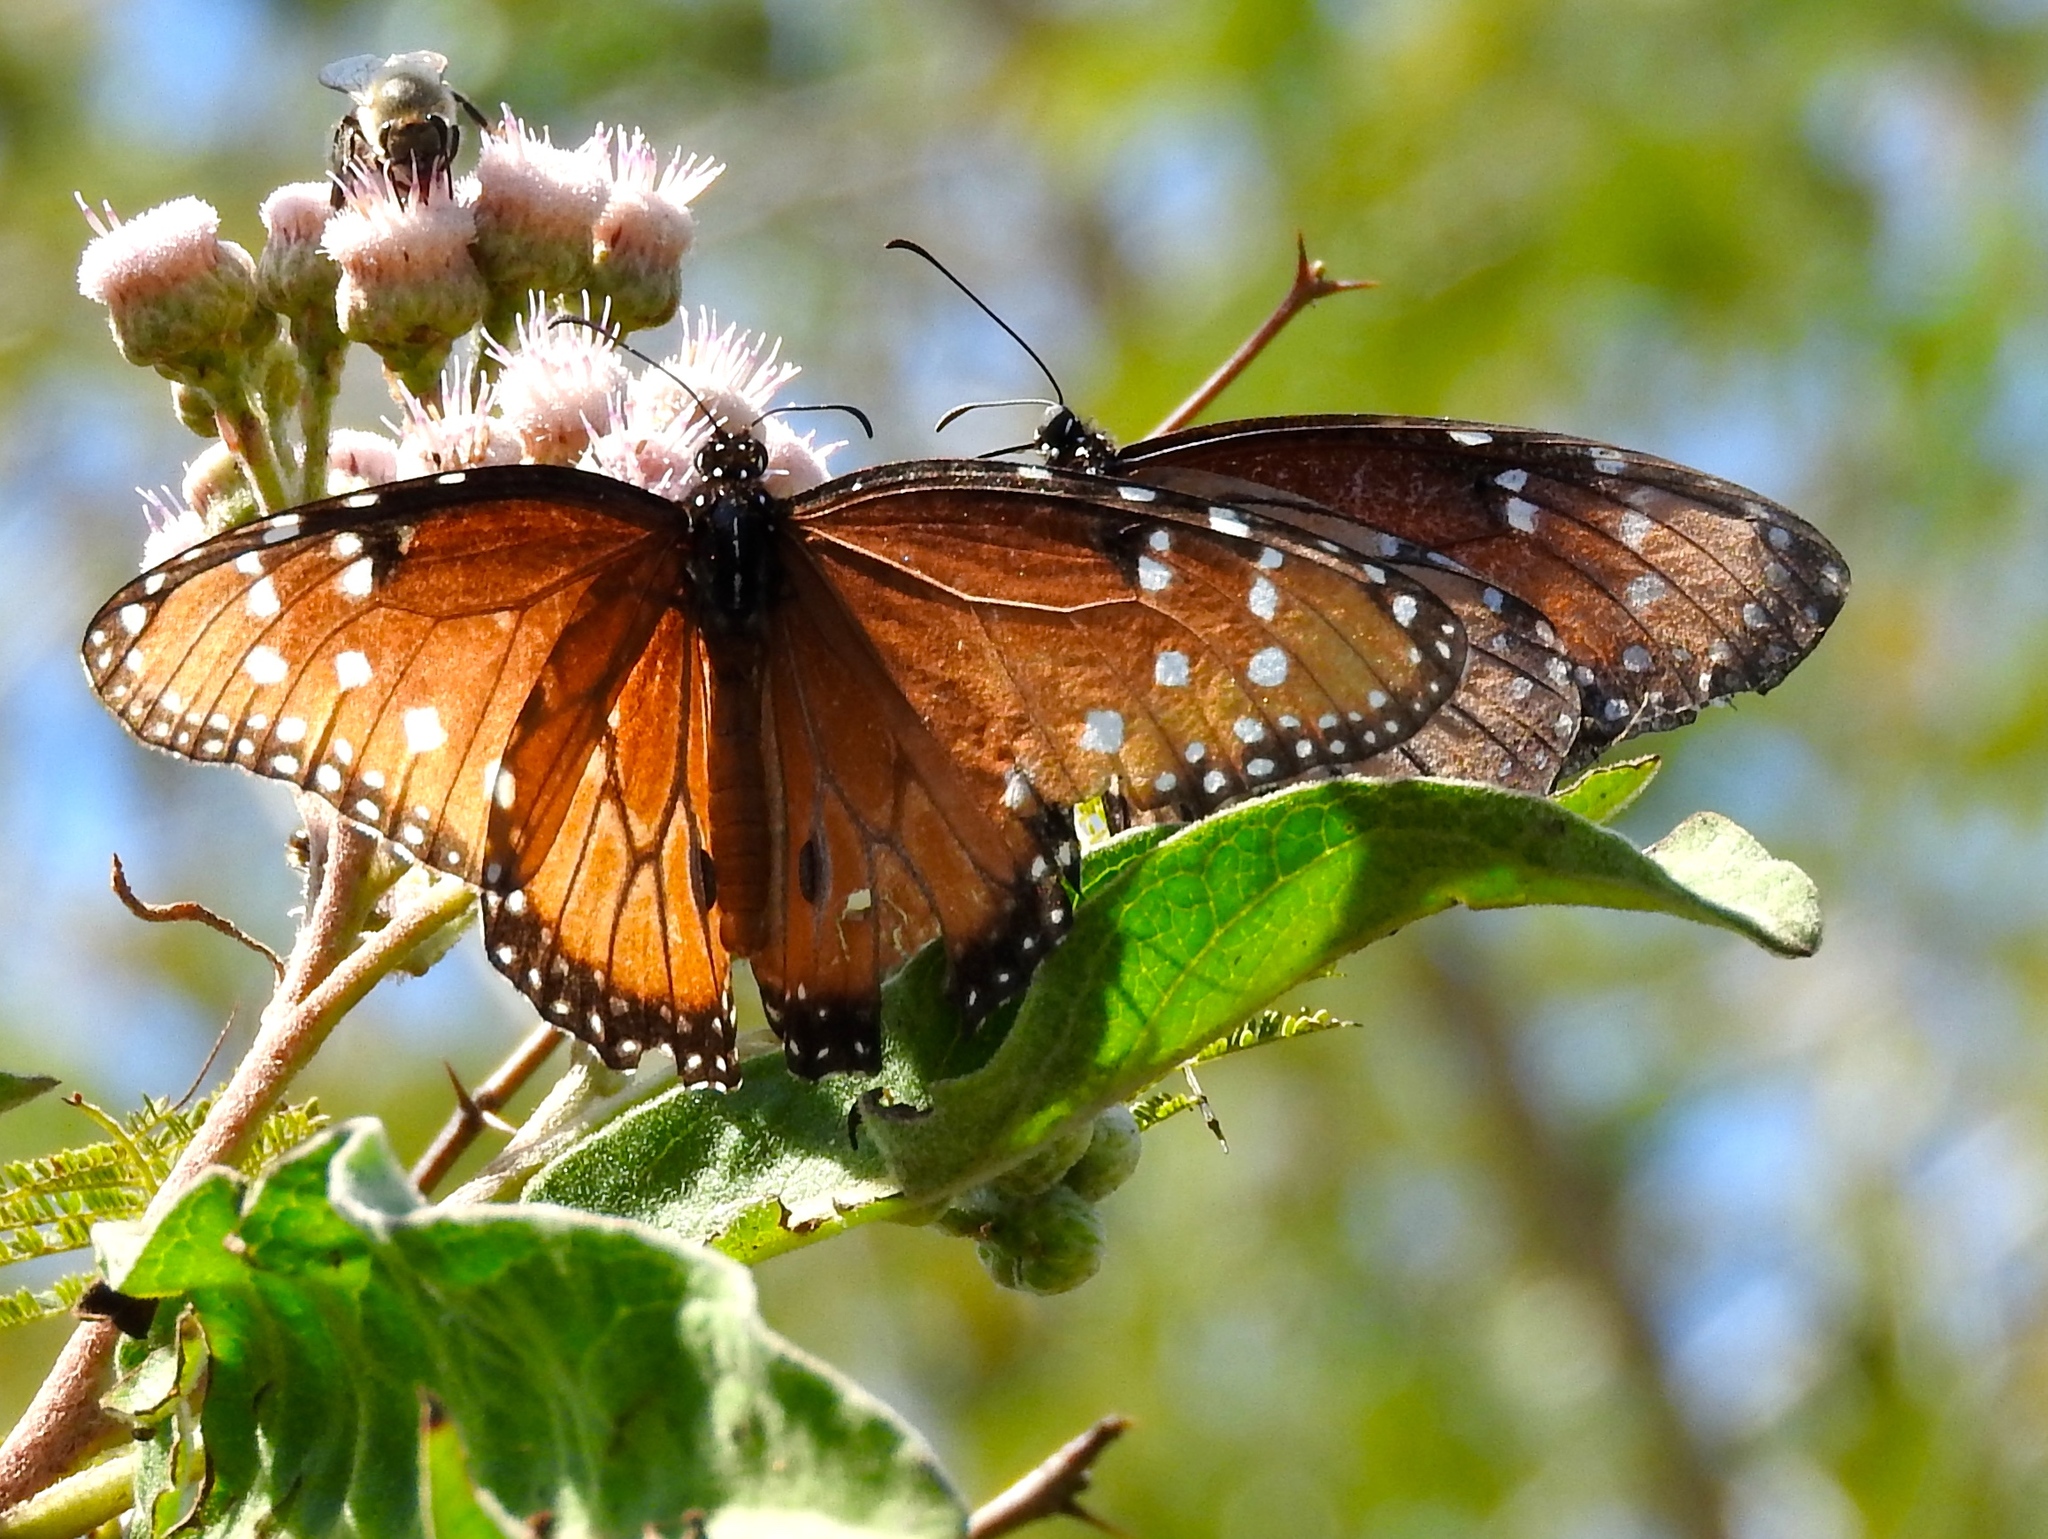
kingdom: Animalia
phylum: Arthropoda
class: Insecta
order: Lepidoptera
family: Nymphalidae
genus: Danaus
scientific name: Danaus gilippus
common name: Queen
